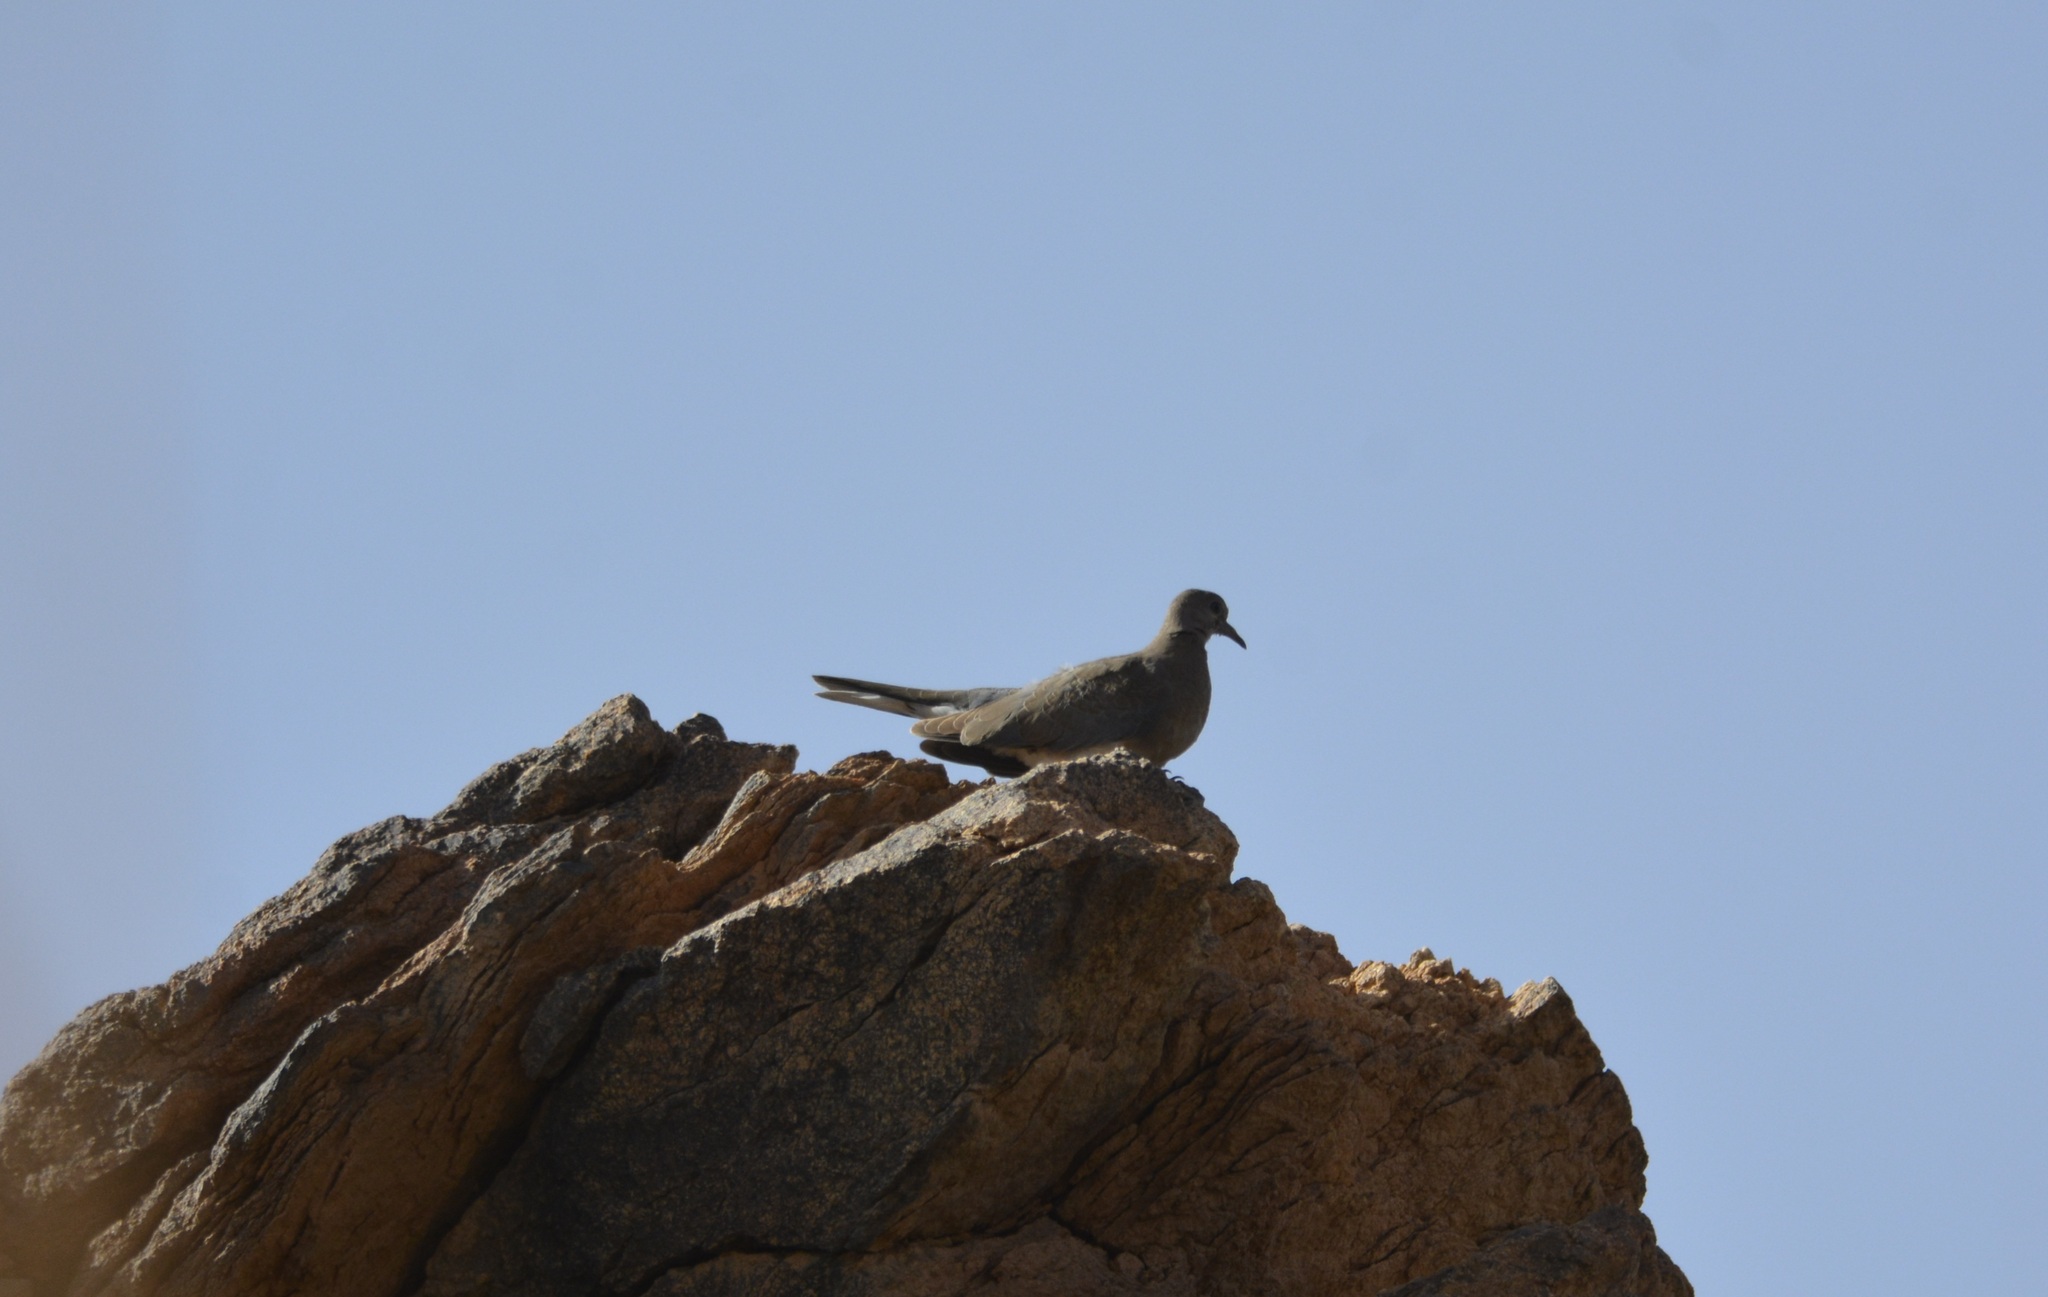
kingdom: Animalia
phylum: Chordata
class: Aves
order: Columbiformes
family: Columbidae
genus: Spilopelia
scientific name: Spilopelia senegalensis
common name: Laughing dove
